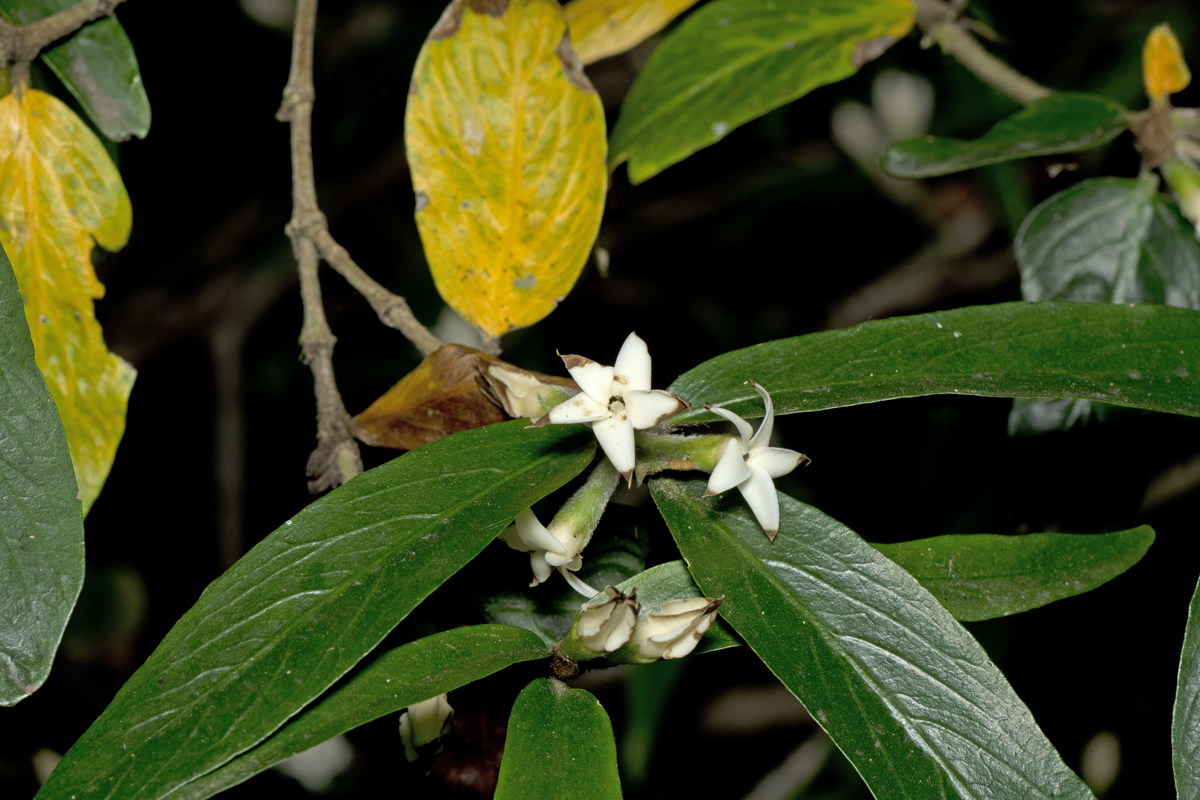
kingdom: Plantae
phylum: Tracheophyta
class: Magnoliopsida
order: Gentianales
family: Rubiaceae
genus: Atractocarpus
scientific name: Atractocarpus chartaceus
